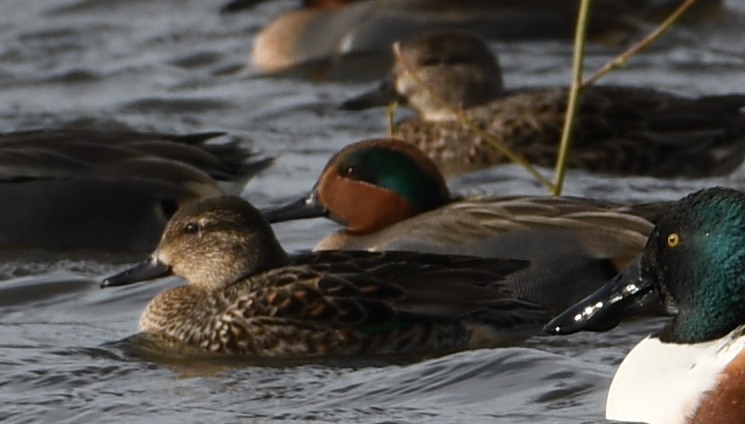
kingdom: Animalia
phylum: Chordata
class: Aves
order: Anseriformes
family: Anatidae
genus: Anas
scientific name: Anas crecca
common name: Eurasian teal
